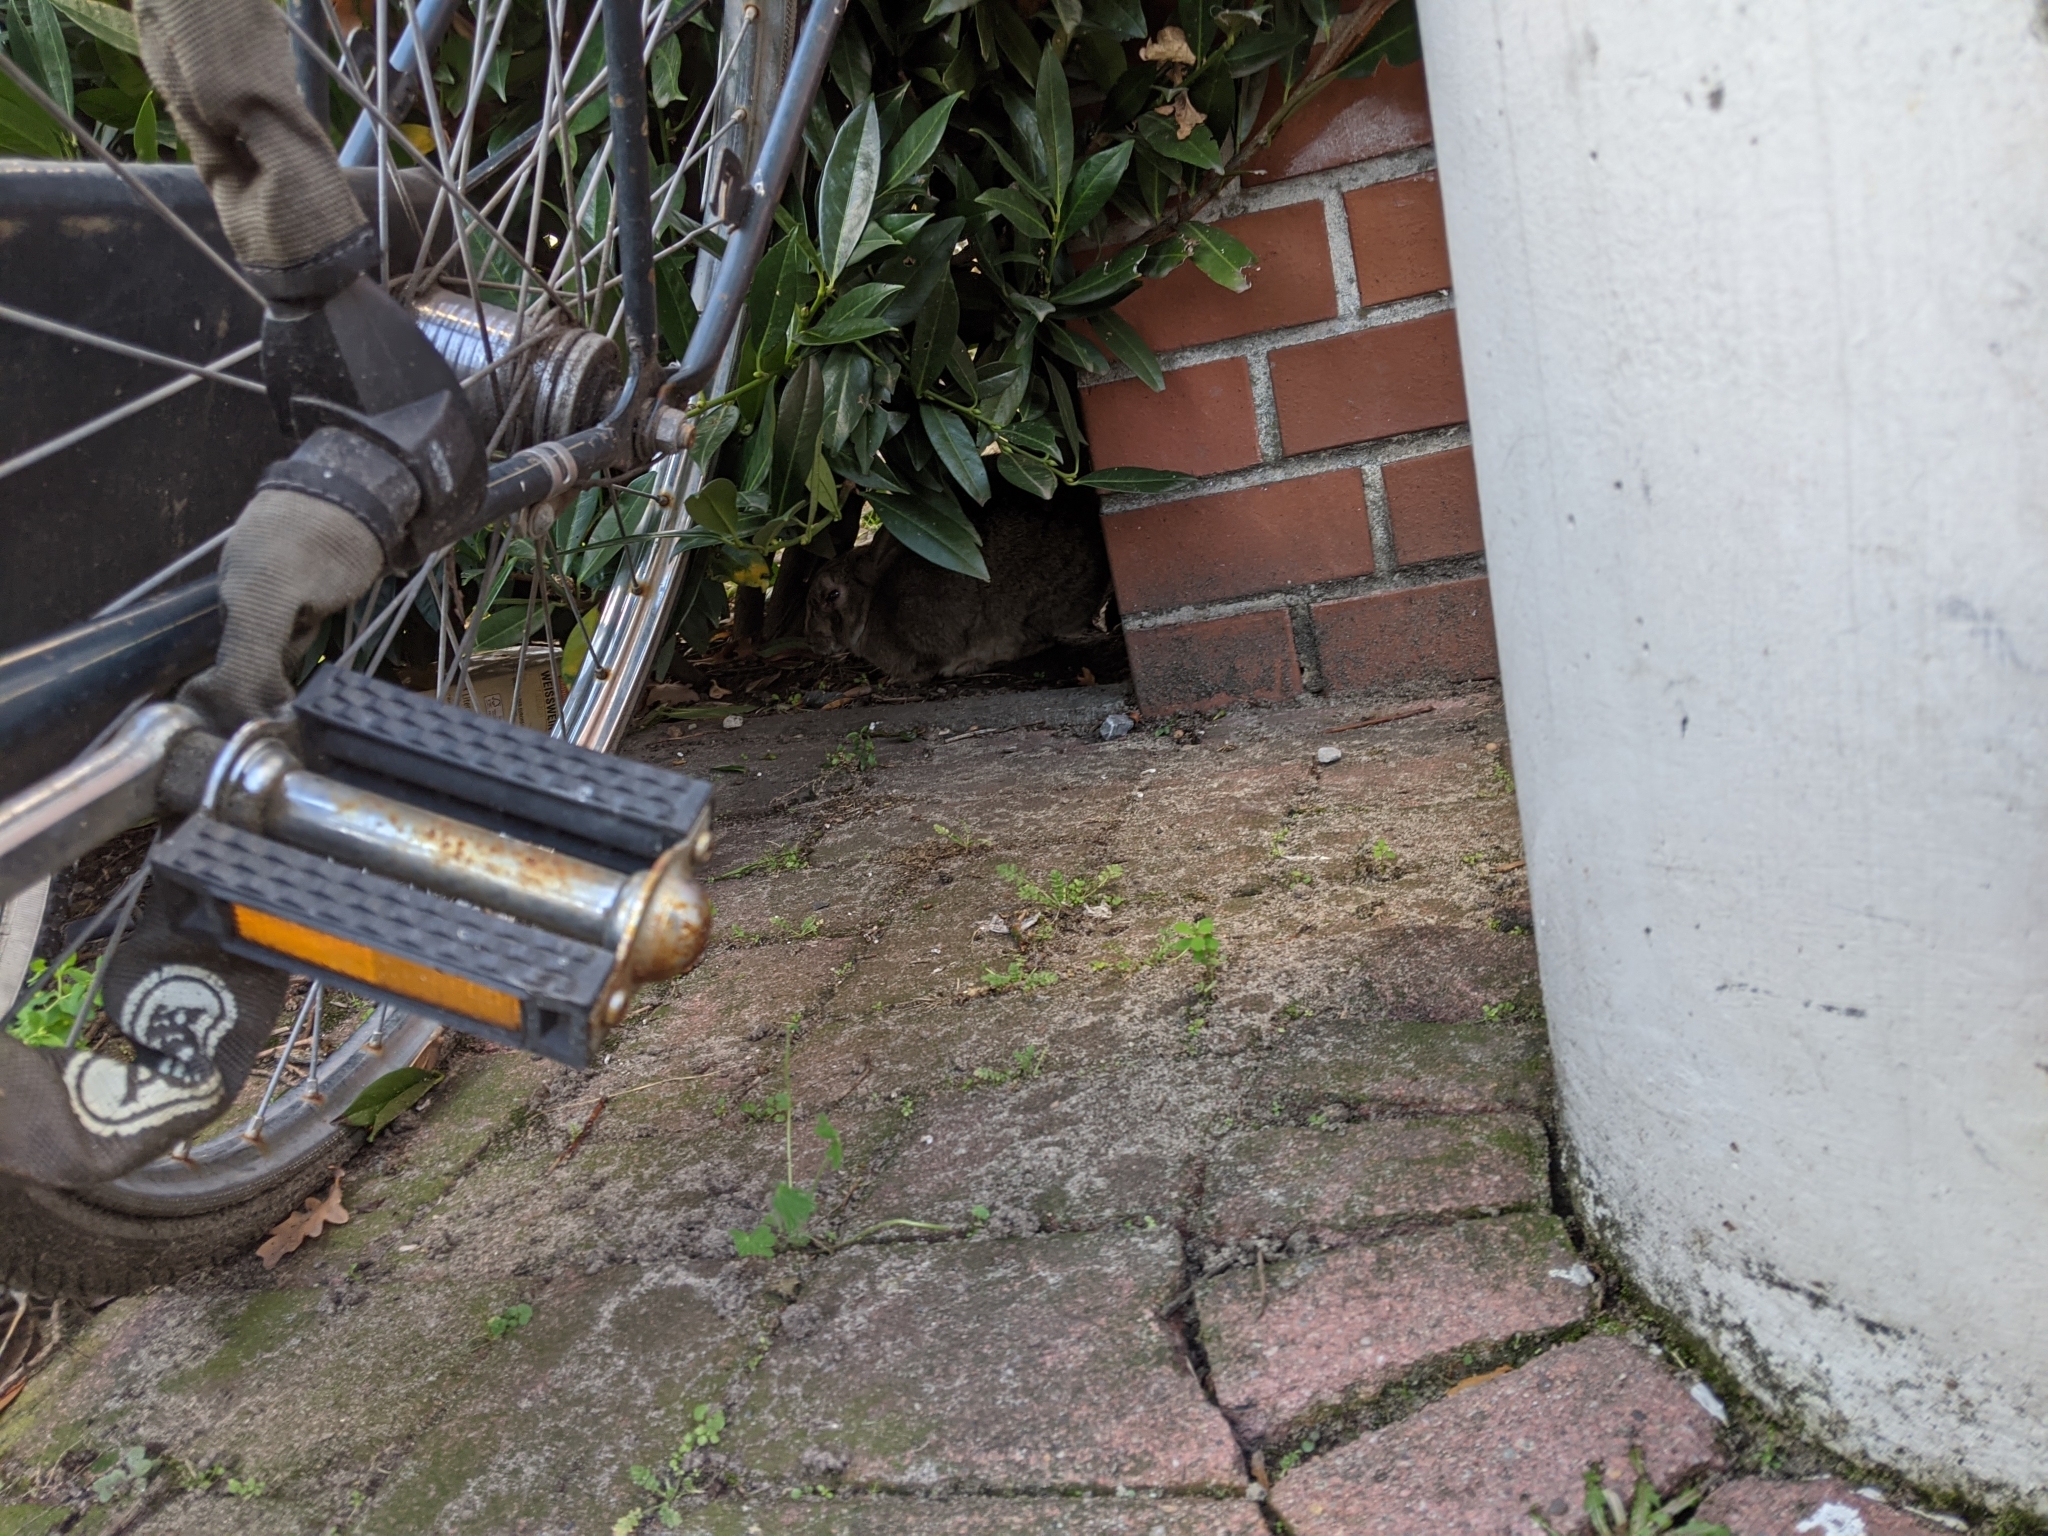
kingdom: Animalia
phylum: Chordata
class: Mammalia
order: Lagomorpha
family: Leporidae
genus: Oryctolagus
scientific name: Oryctolagus cuniculus
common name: European rabbit
